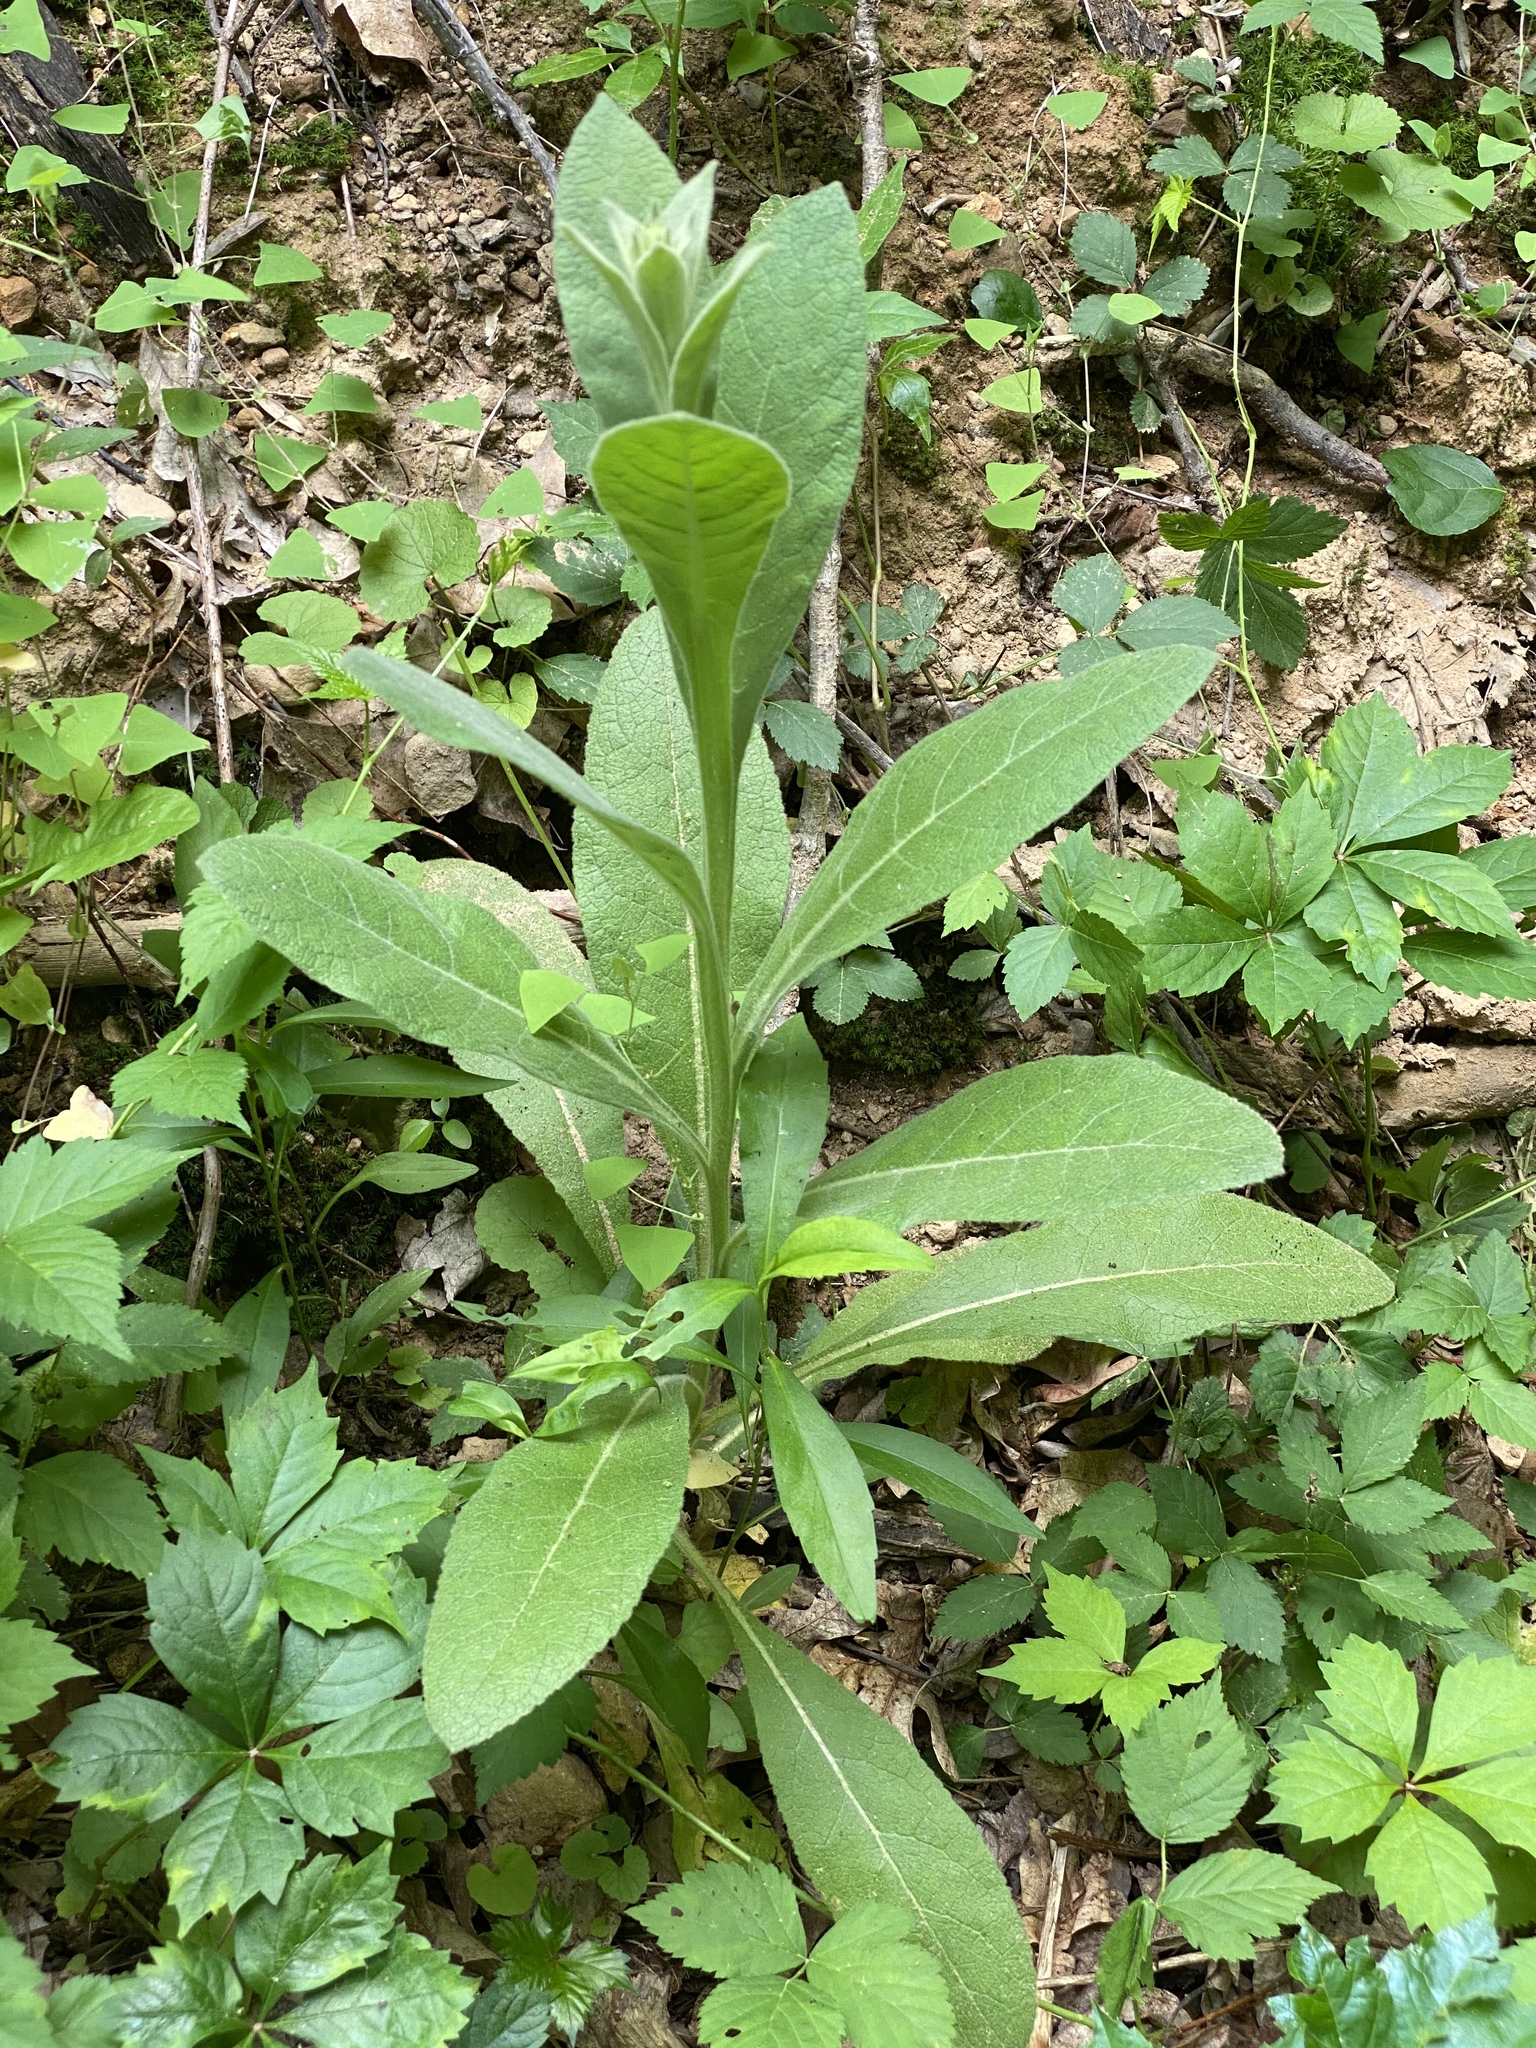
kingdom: Plantae
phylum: Tracheophyta
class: Magnoliopsida
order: Lamiales
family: Scrophulariaceae
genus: Verbascum
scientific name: Verbascum thapsus
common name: Common mullein
